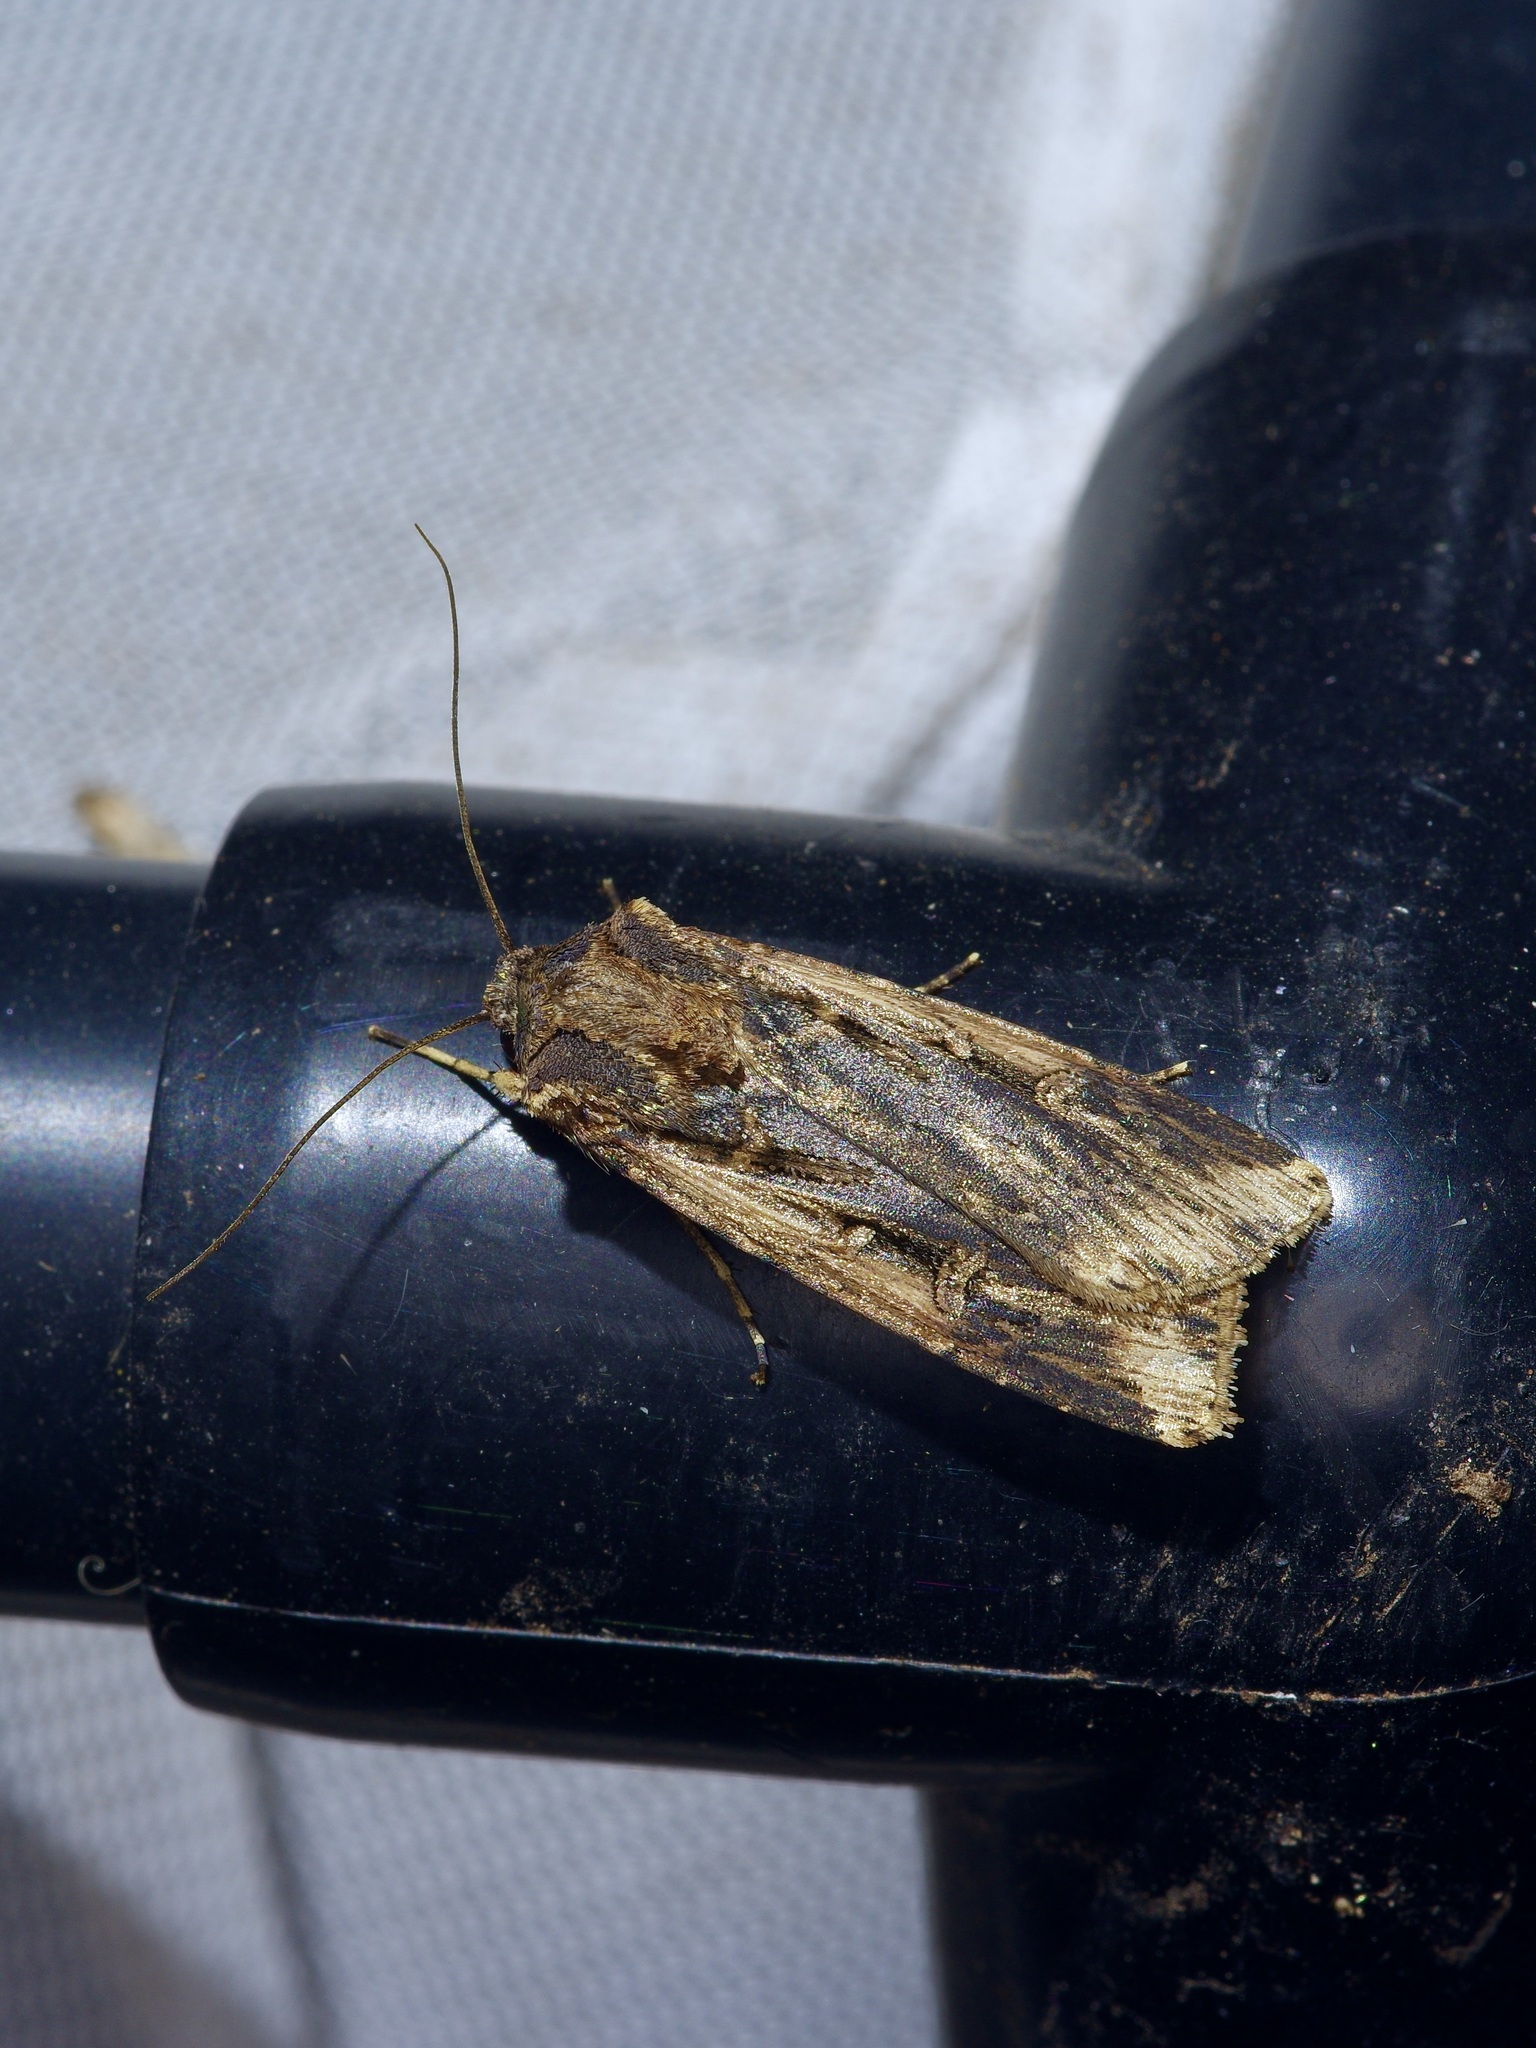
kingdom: Animalia
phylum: Arthropoda
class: Insecta
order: Lepidoptera
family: Noctuidae
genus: Feltia
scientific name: Feltia subterranea
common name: Granulate cutworm
